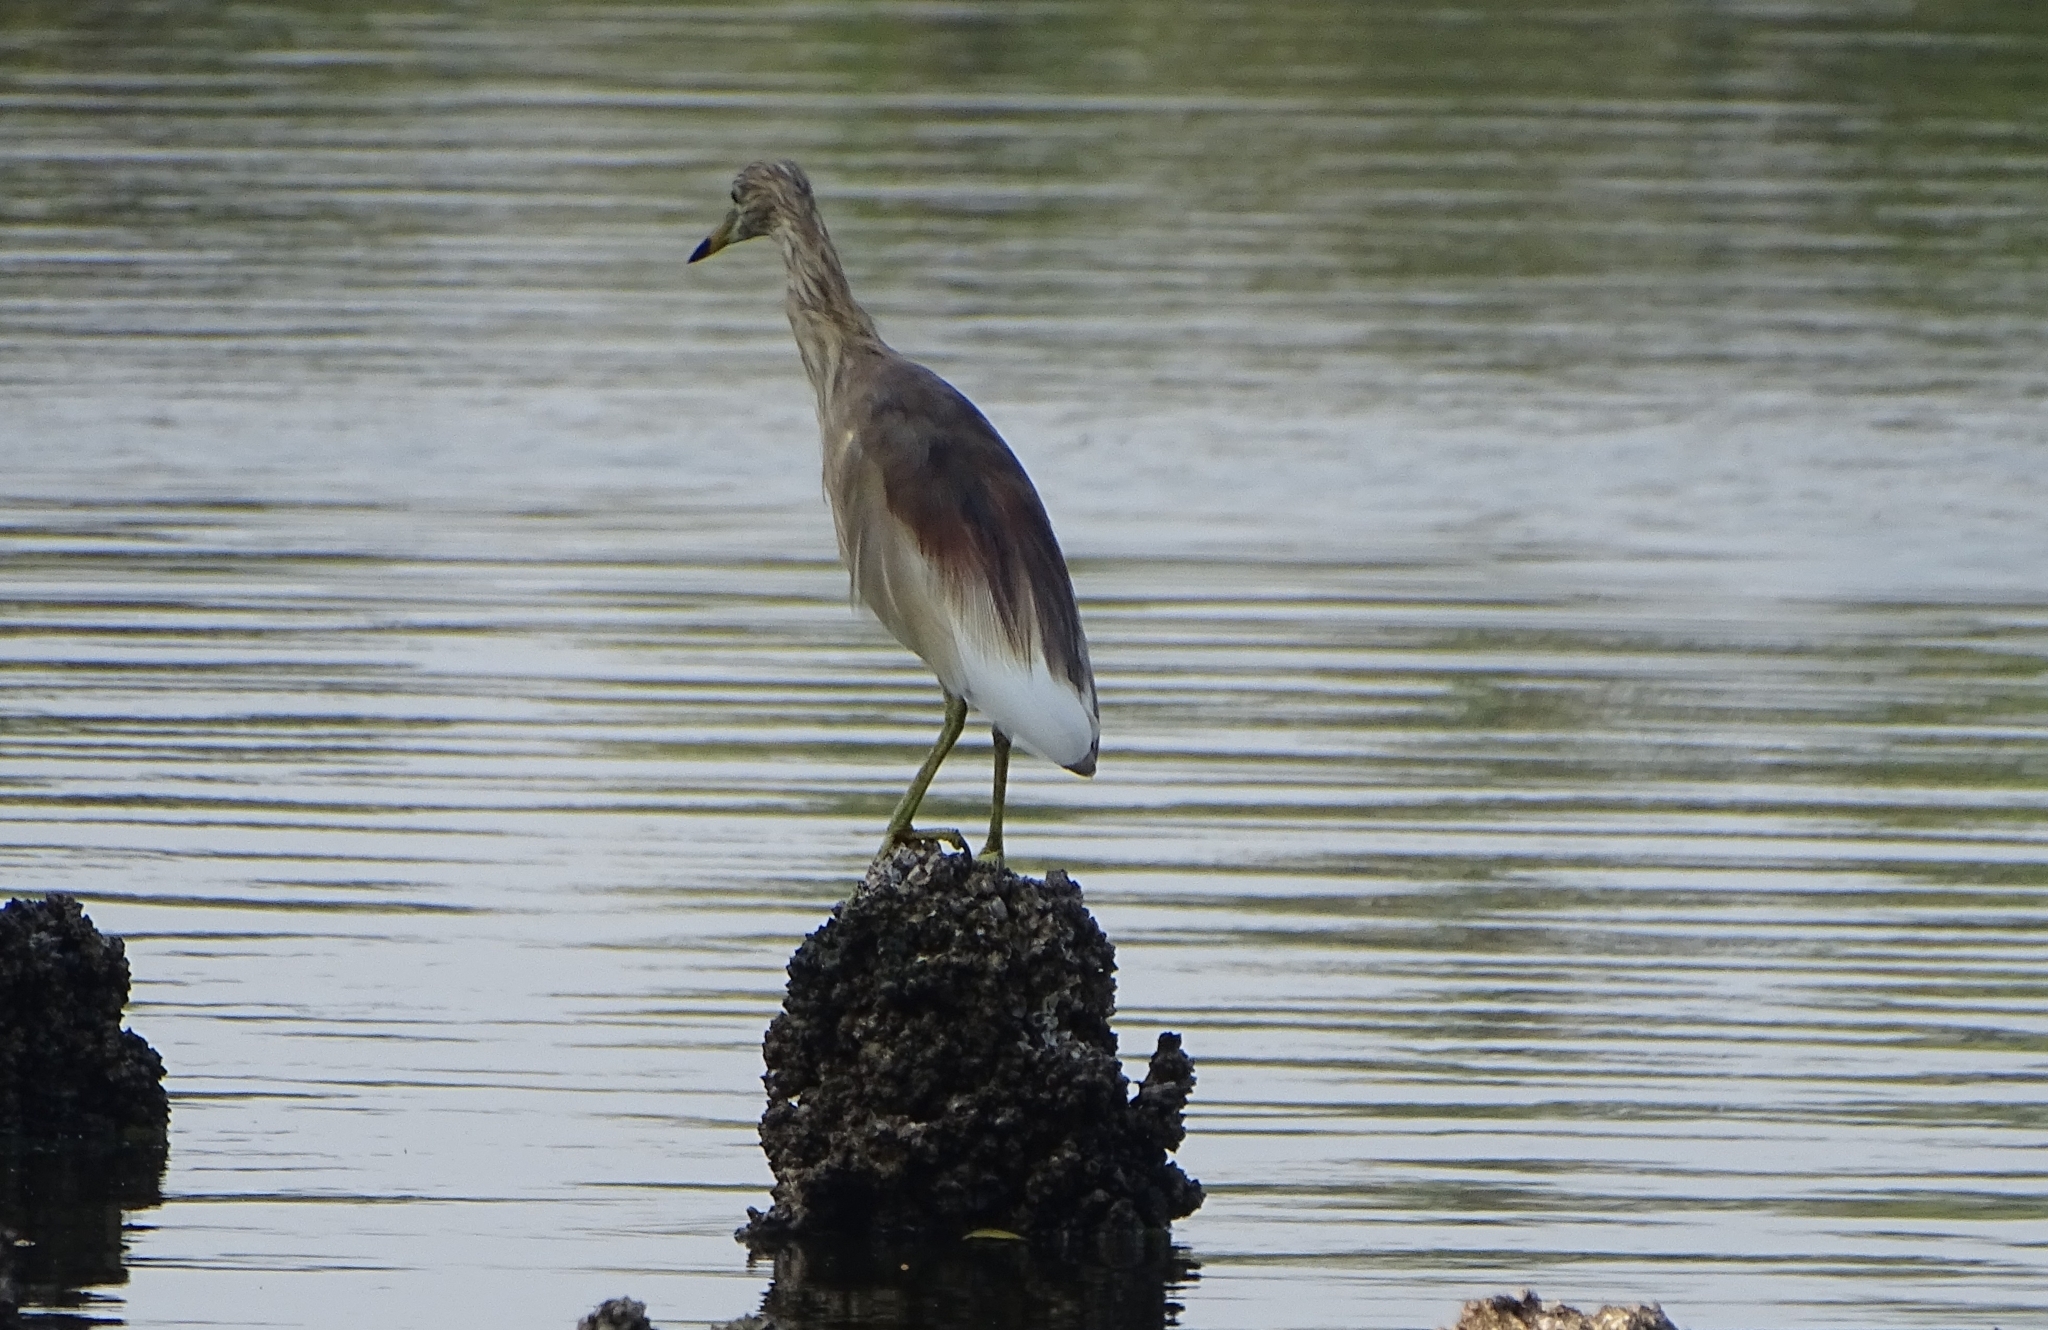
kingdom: Animalia
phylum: Chordata
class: Aves
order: Pelecaniformes
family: Ardeidae
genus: Ardeola
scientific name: Ardeola grayii
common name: Indian pond heron
